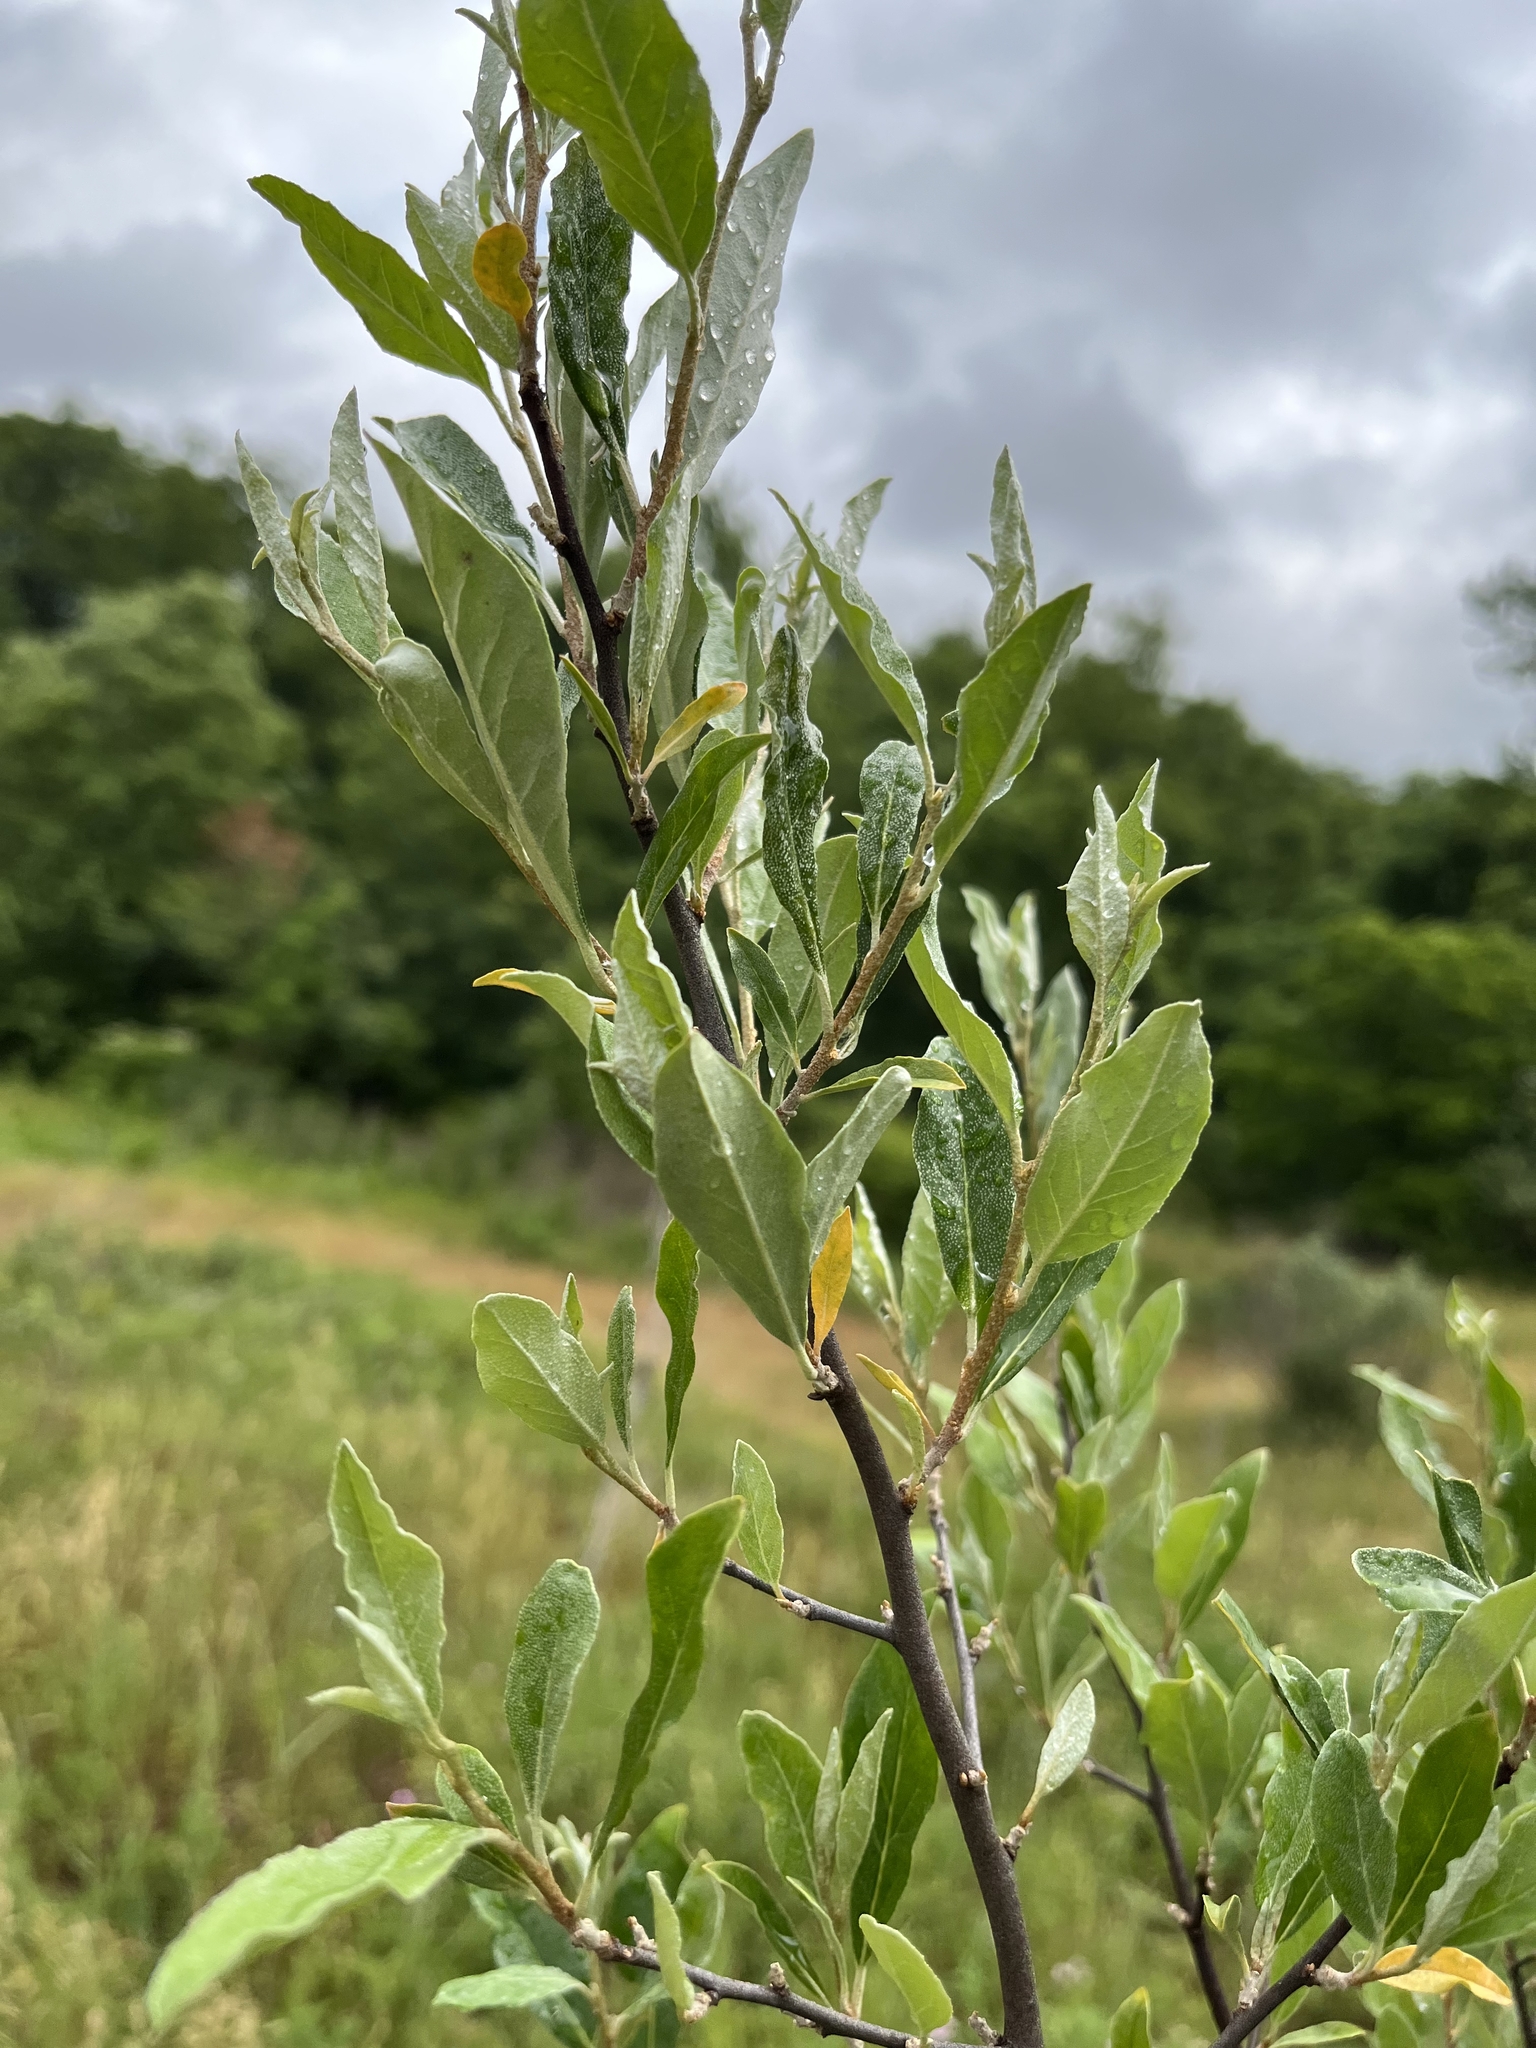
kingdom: Plantae
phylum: Tracheophyta
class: Magnoliopsida
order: Rosales
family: Elaeagnaceae
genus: Elaeagnus
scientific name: Elaeagnus umbellata
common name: Autumn olive
